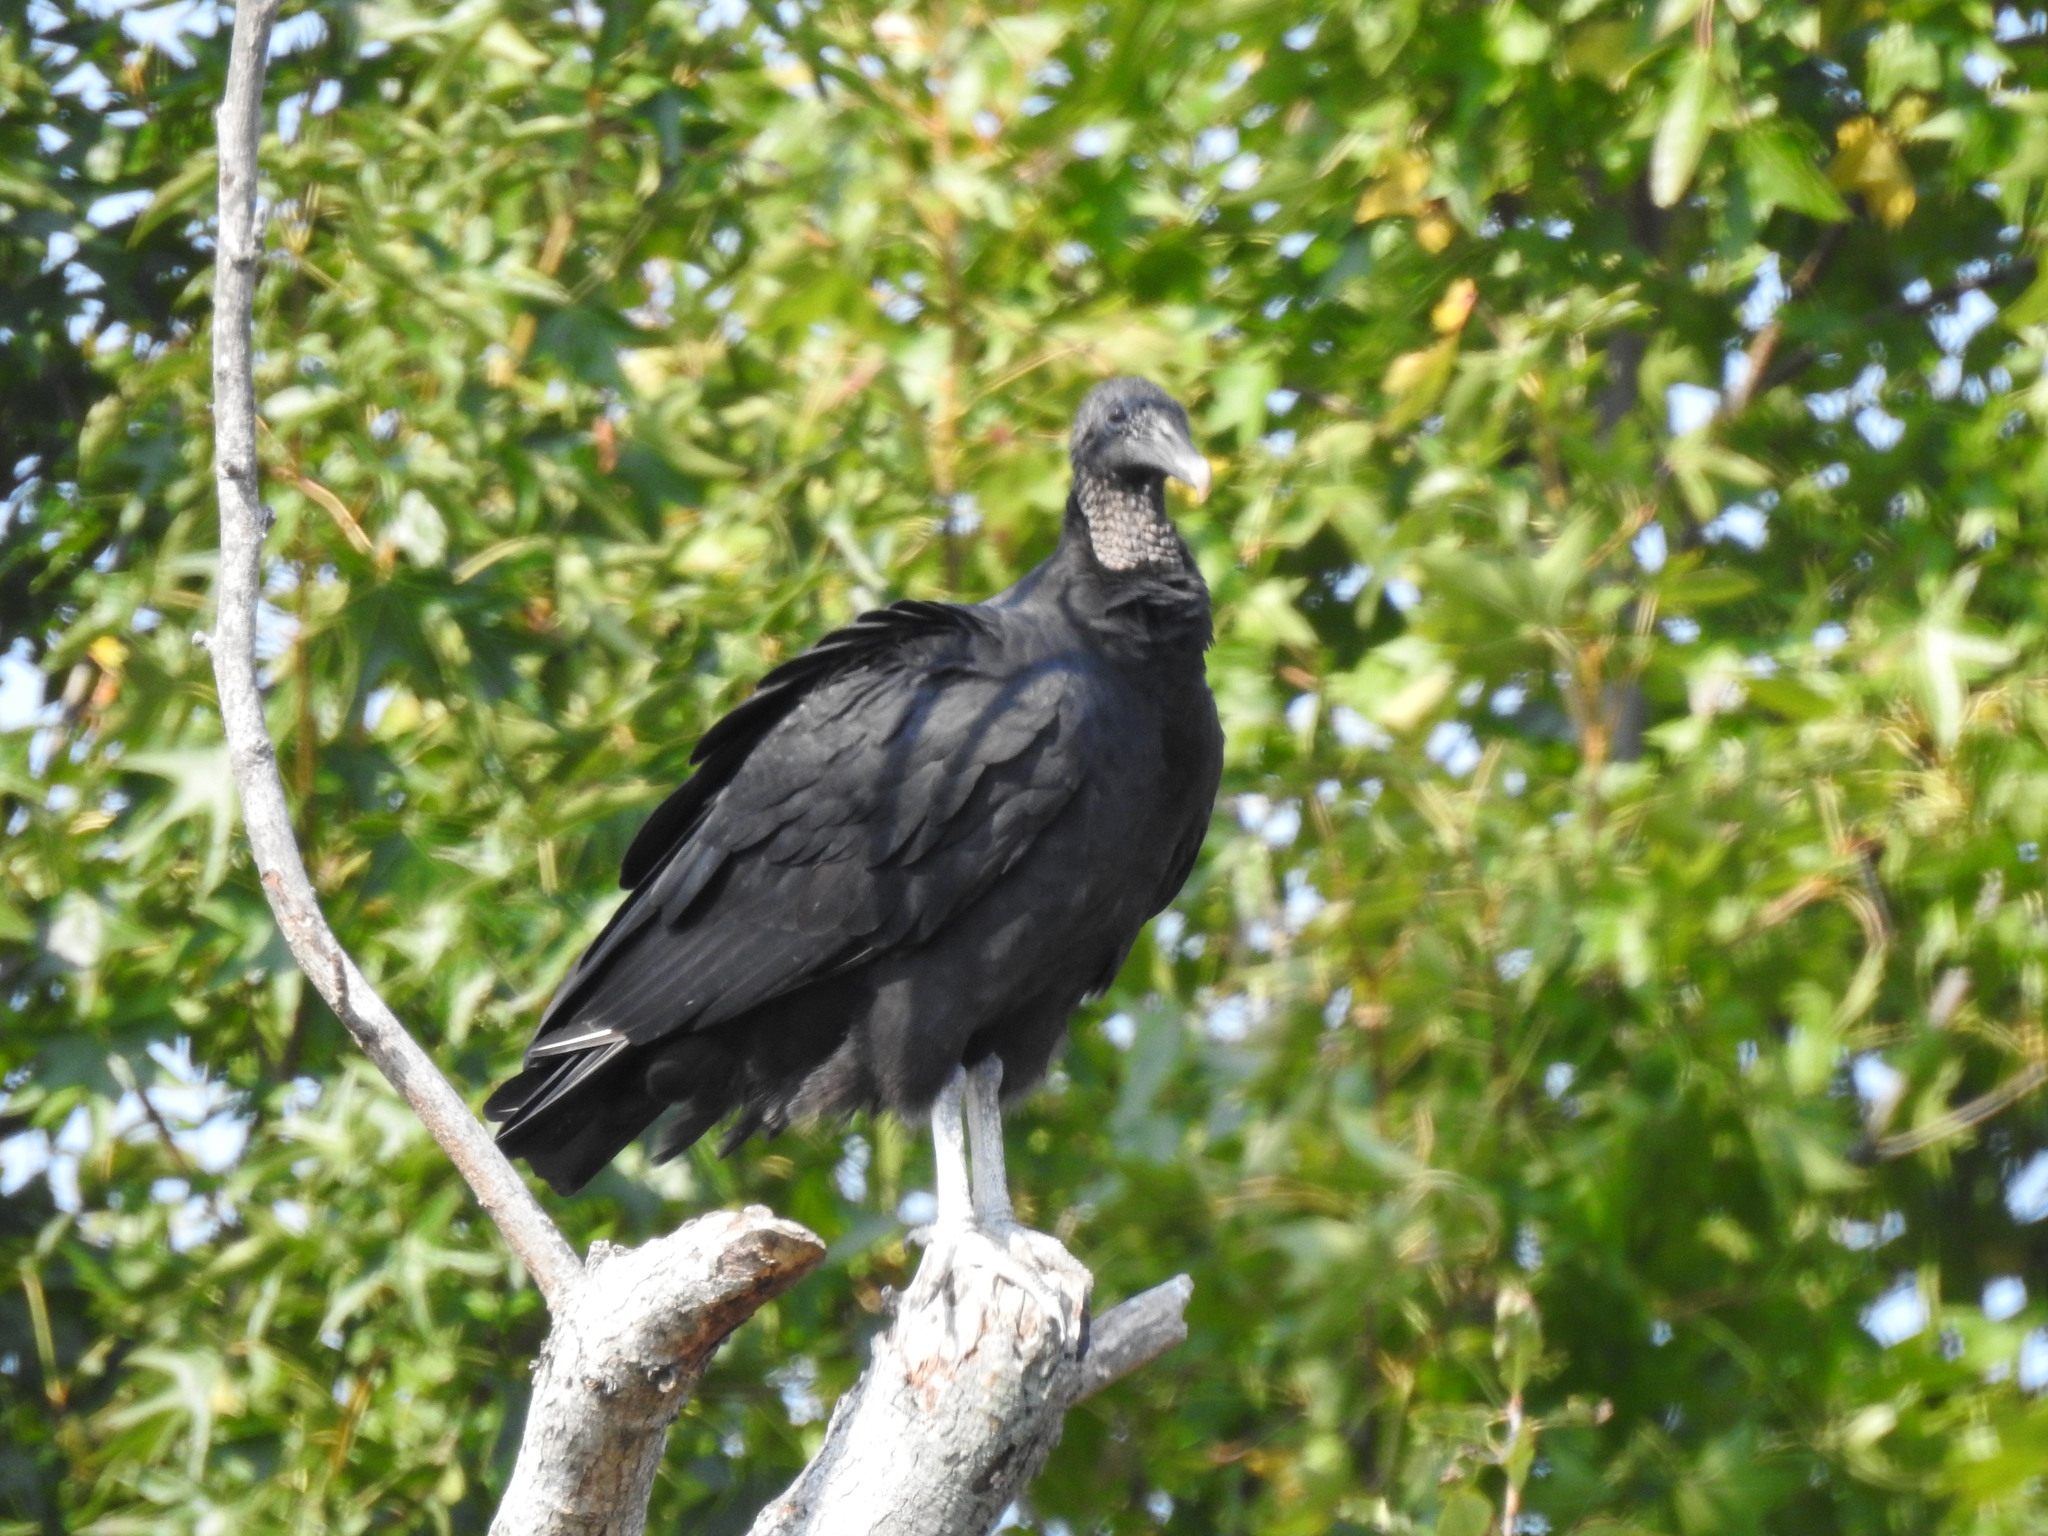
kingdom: Animalia
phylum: Chordata
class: Aves
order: Accipitriformes
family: Cathartidae
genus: Coragyps
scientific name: Coragyps atratus
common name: Black vulture
